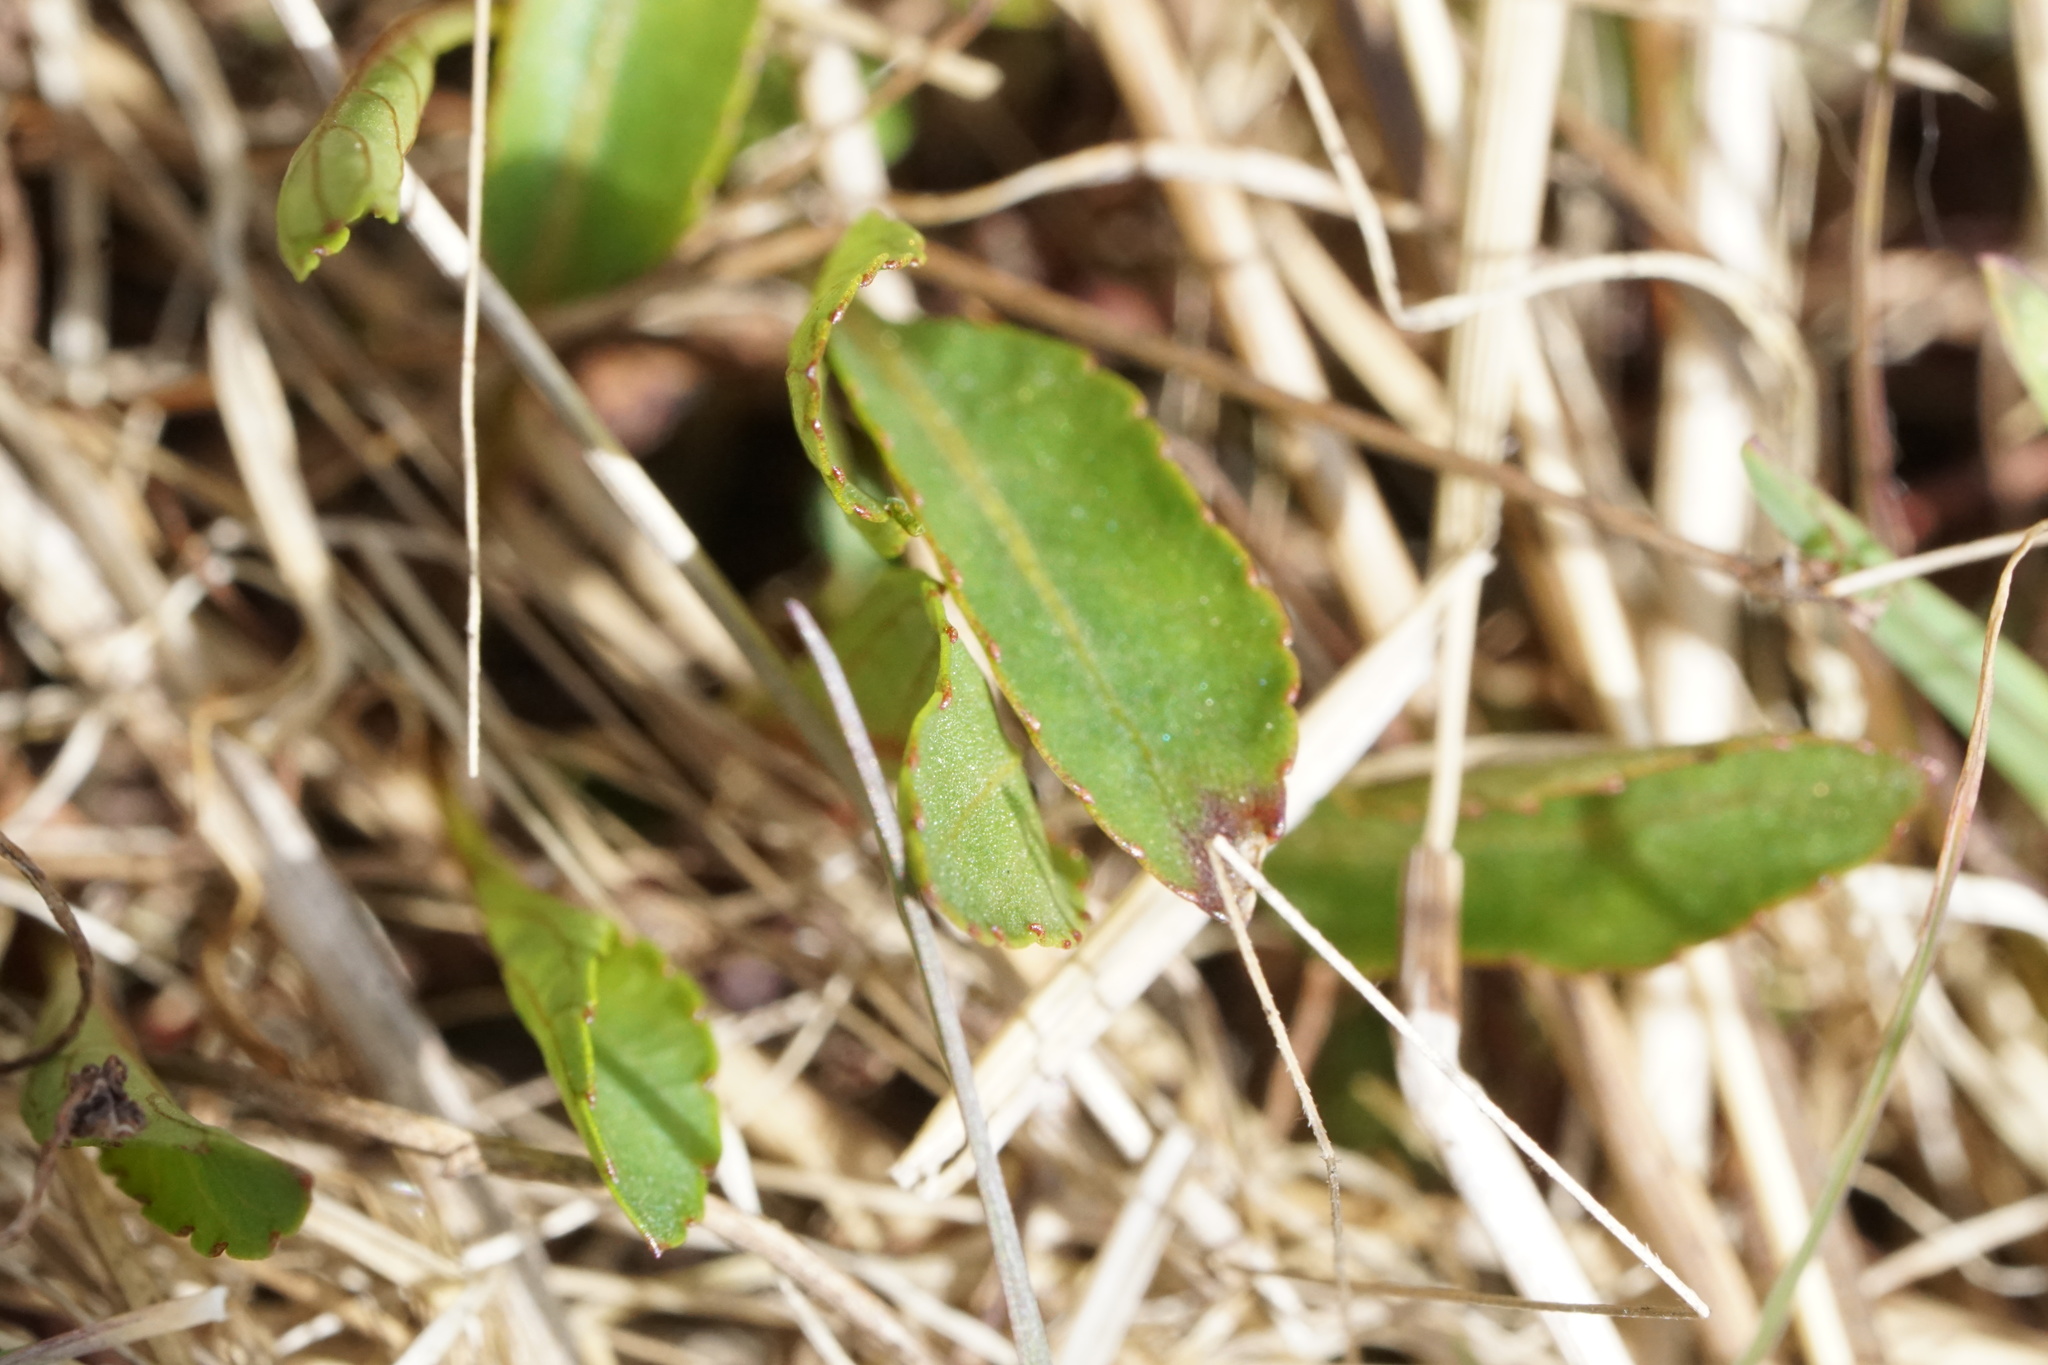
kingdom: Plantae
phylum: Tracheophyta
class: Magnoliopsida
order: Malpighiales
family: Violaceae
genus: Viola
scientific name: Viola lanceolata
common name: Bog white violet
